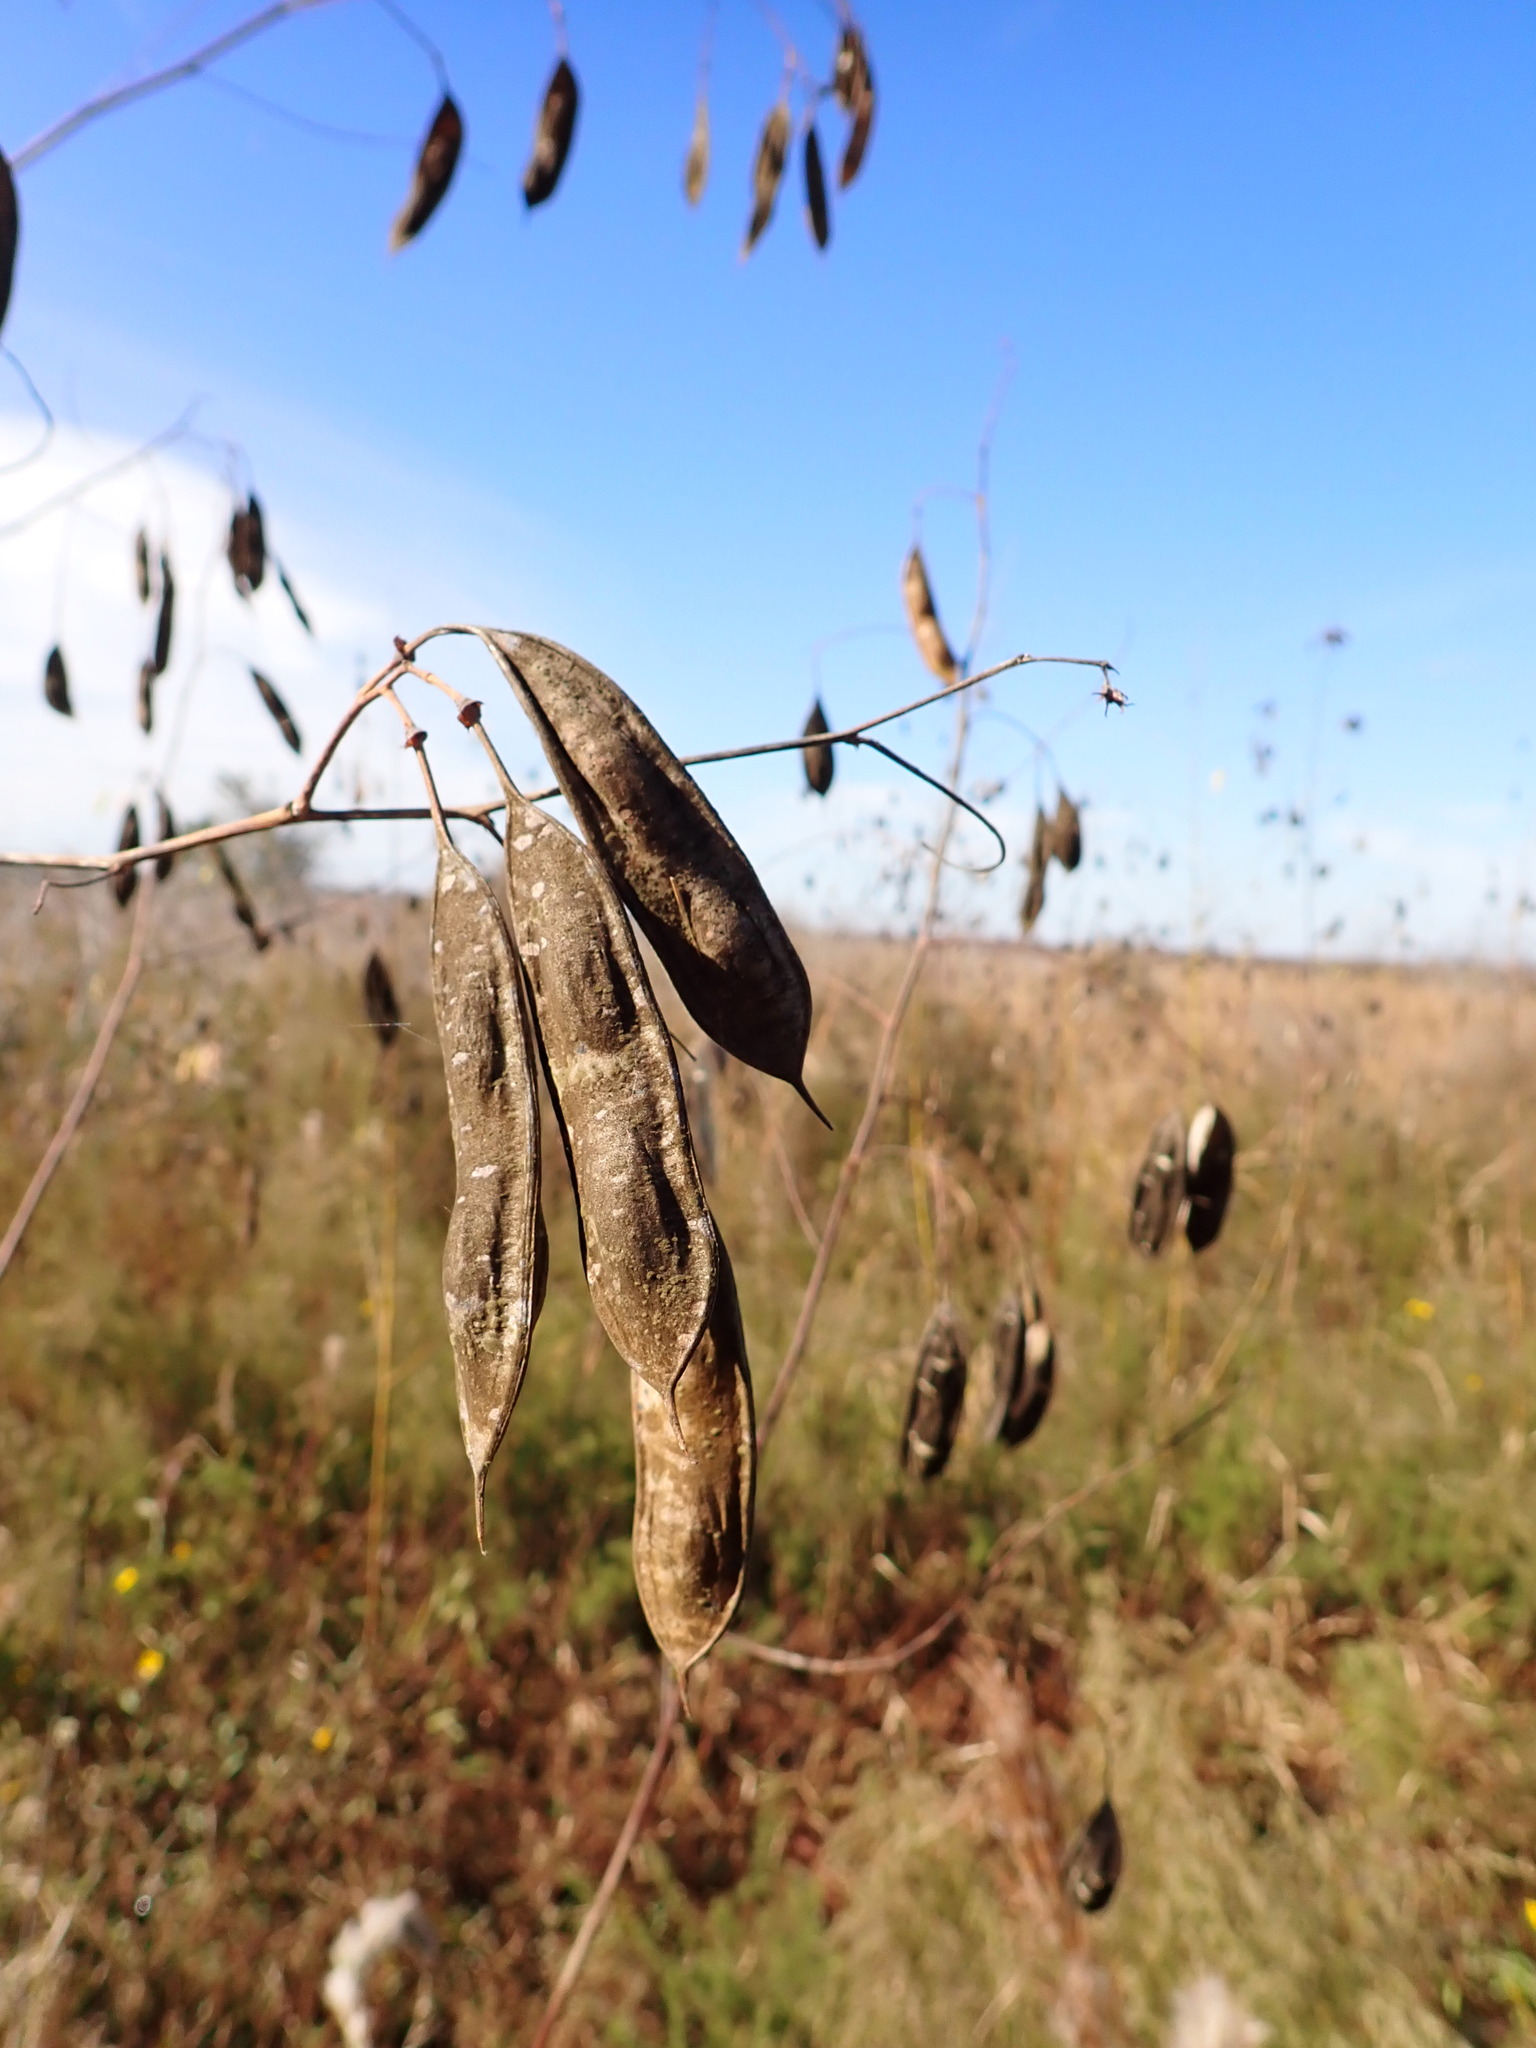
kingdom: Plantae
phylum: Tracheophyta
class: Magnoliopsida
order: Fabales
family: Fabaceae
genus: Sesbania
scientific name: Sesbania vesicaria
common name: Bagpod
